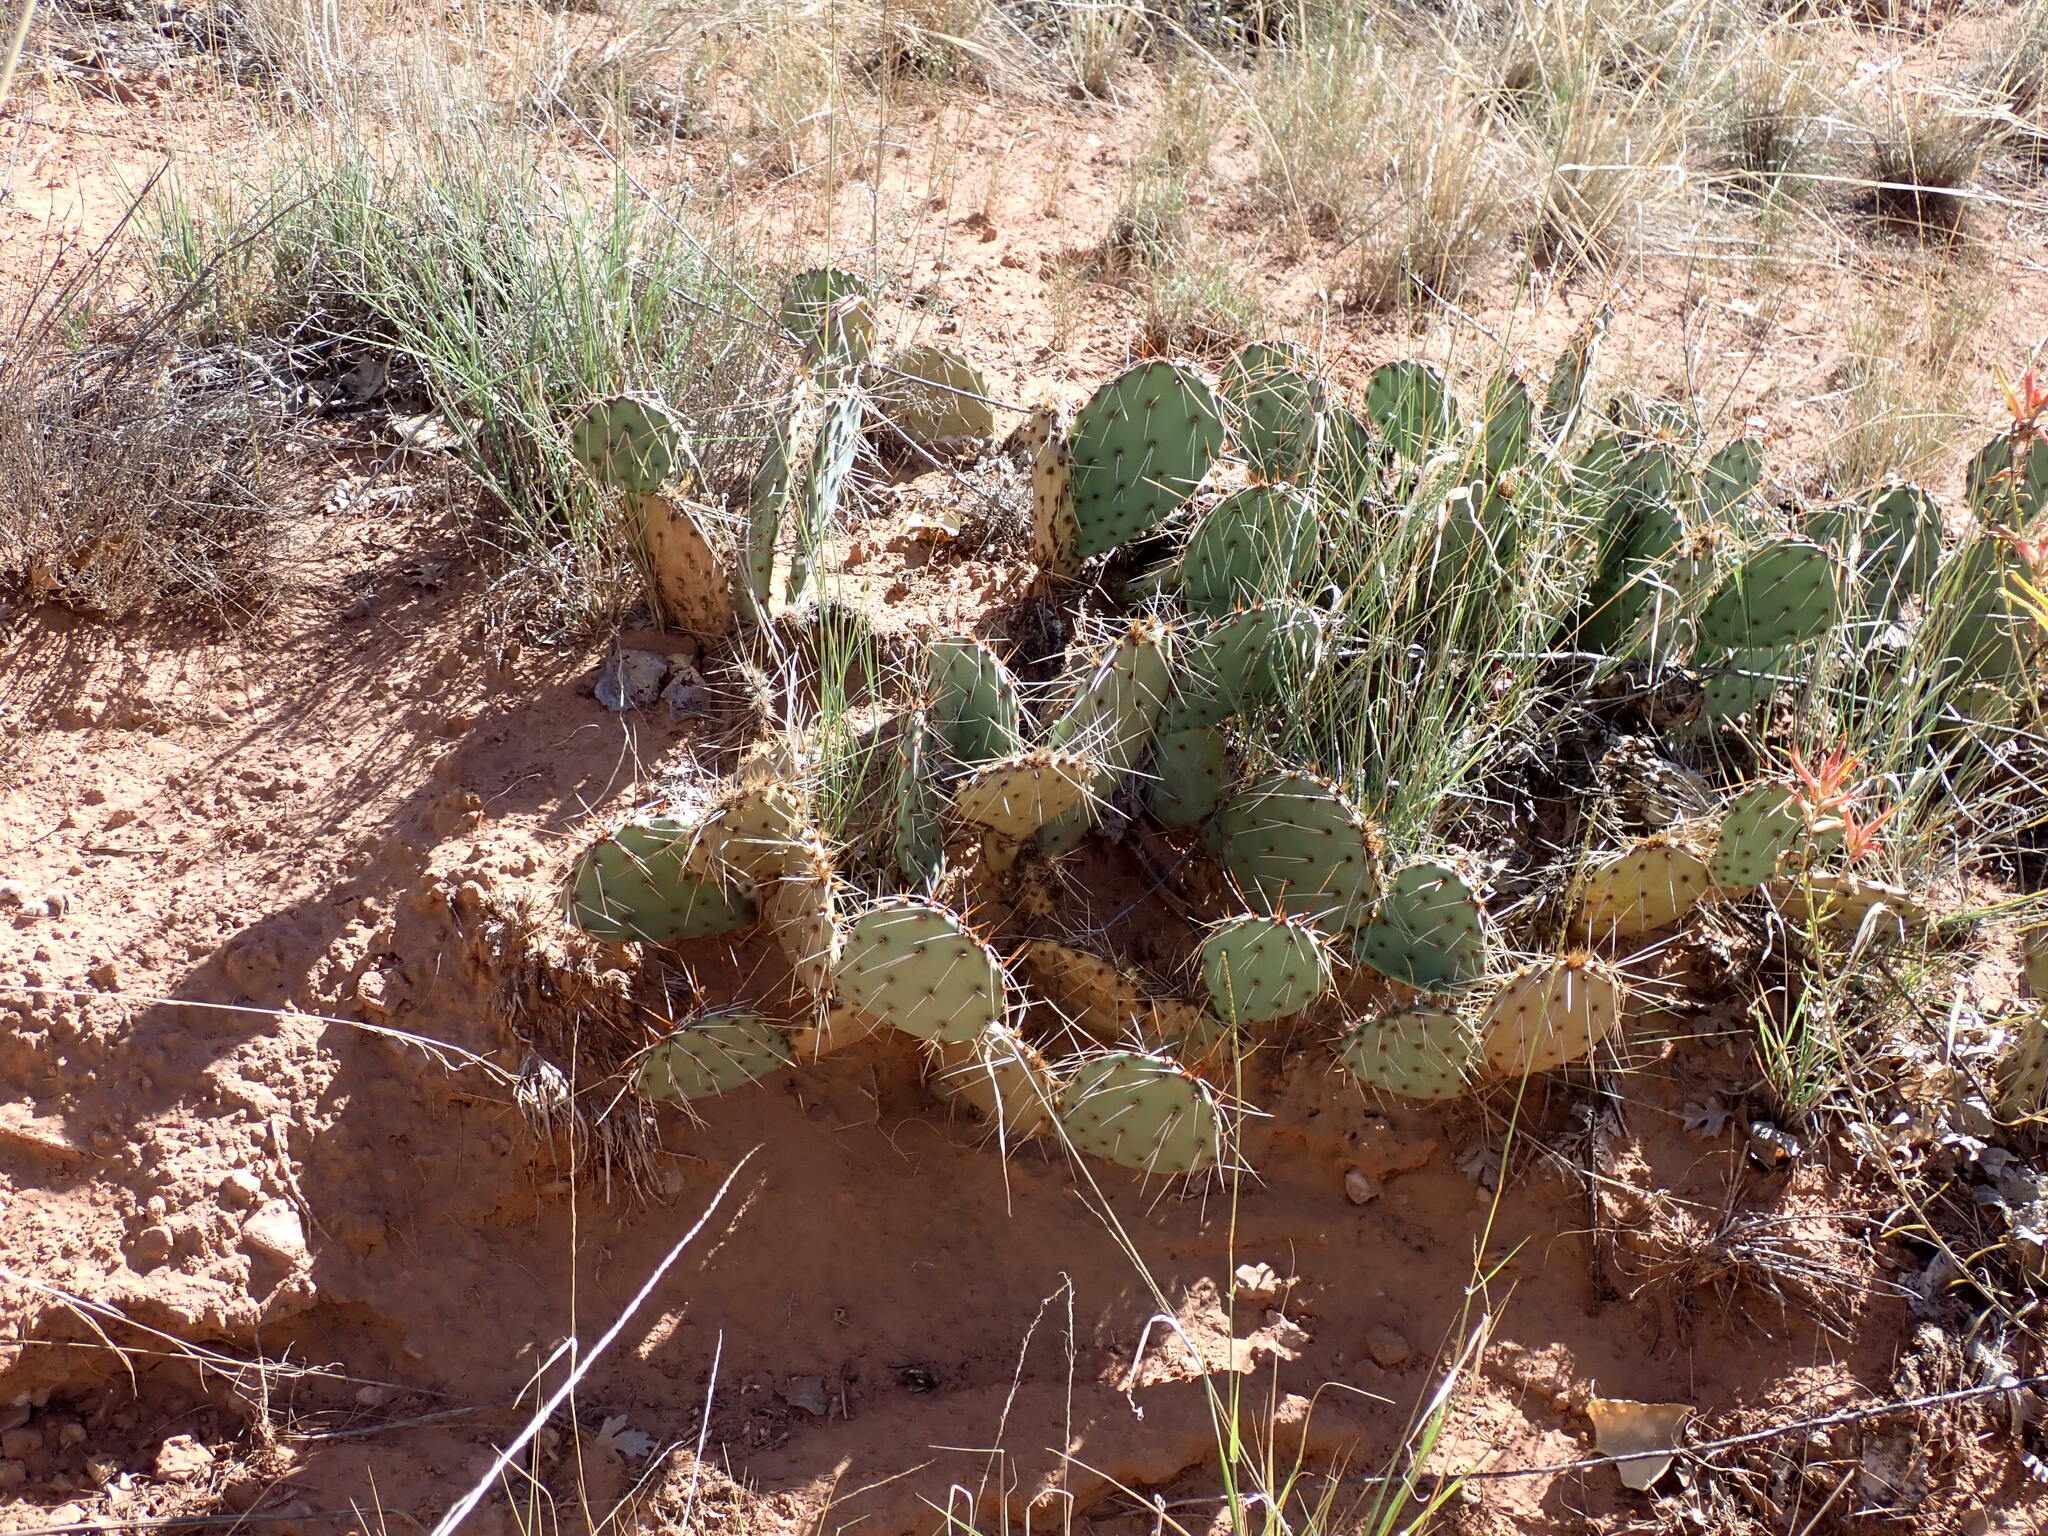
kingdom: Plantae
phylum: Tracheophyta
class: Magnoliopsida
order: Caryophyllales
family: Cactaceae
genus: Opuntia
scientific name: Opuntia phaeacantha
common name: New mexico prickly-pear
